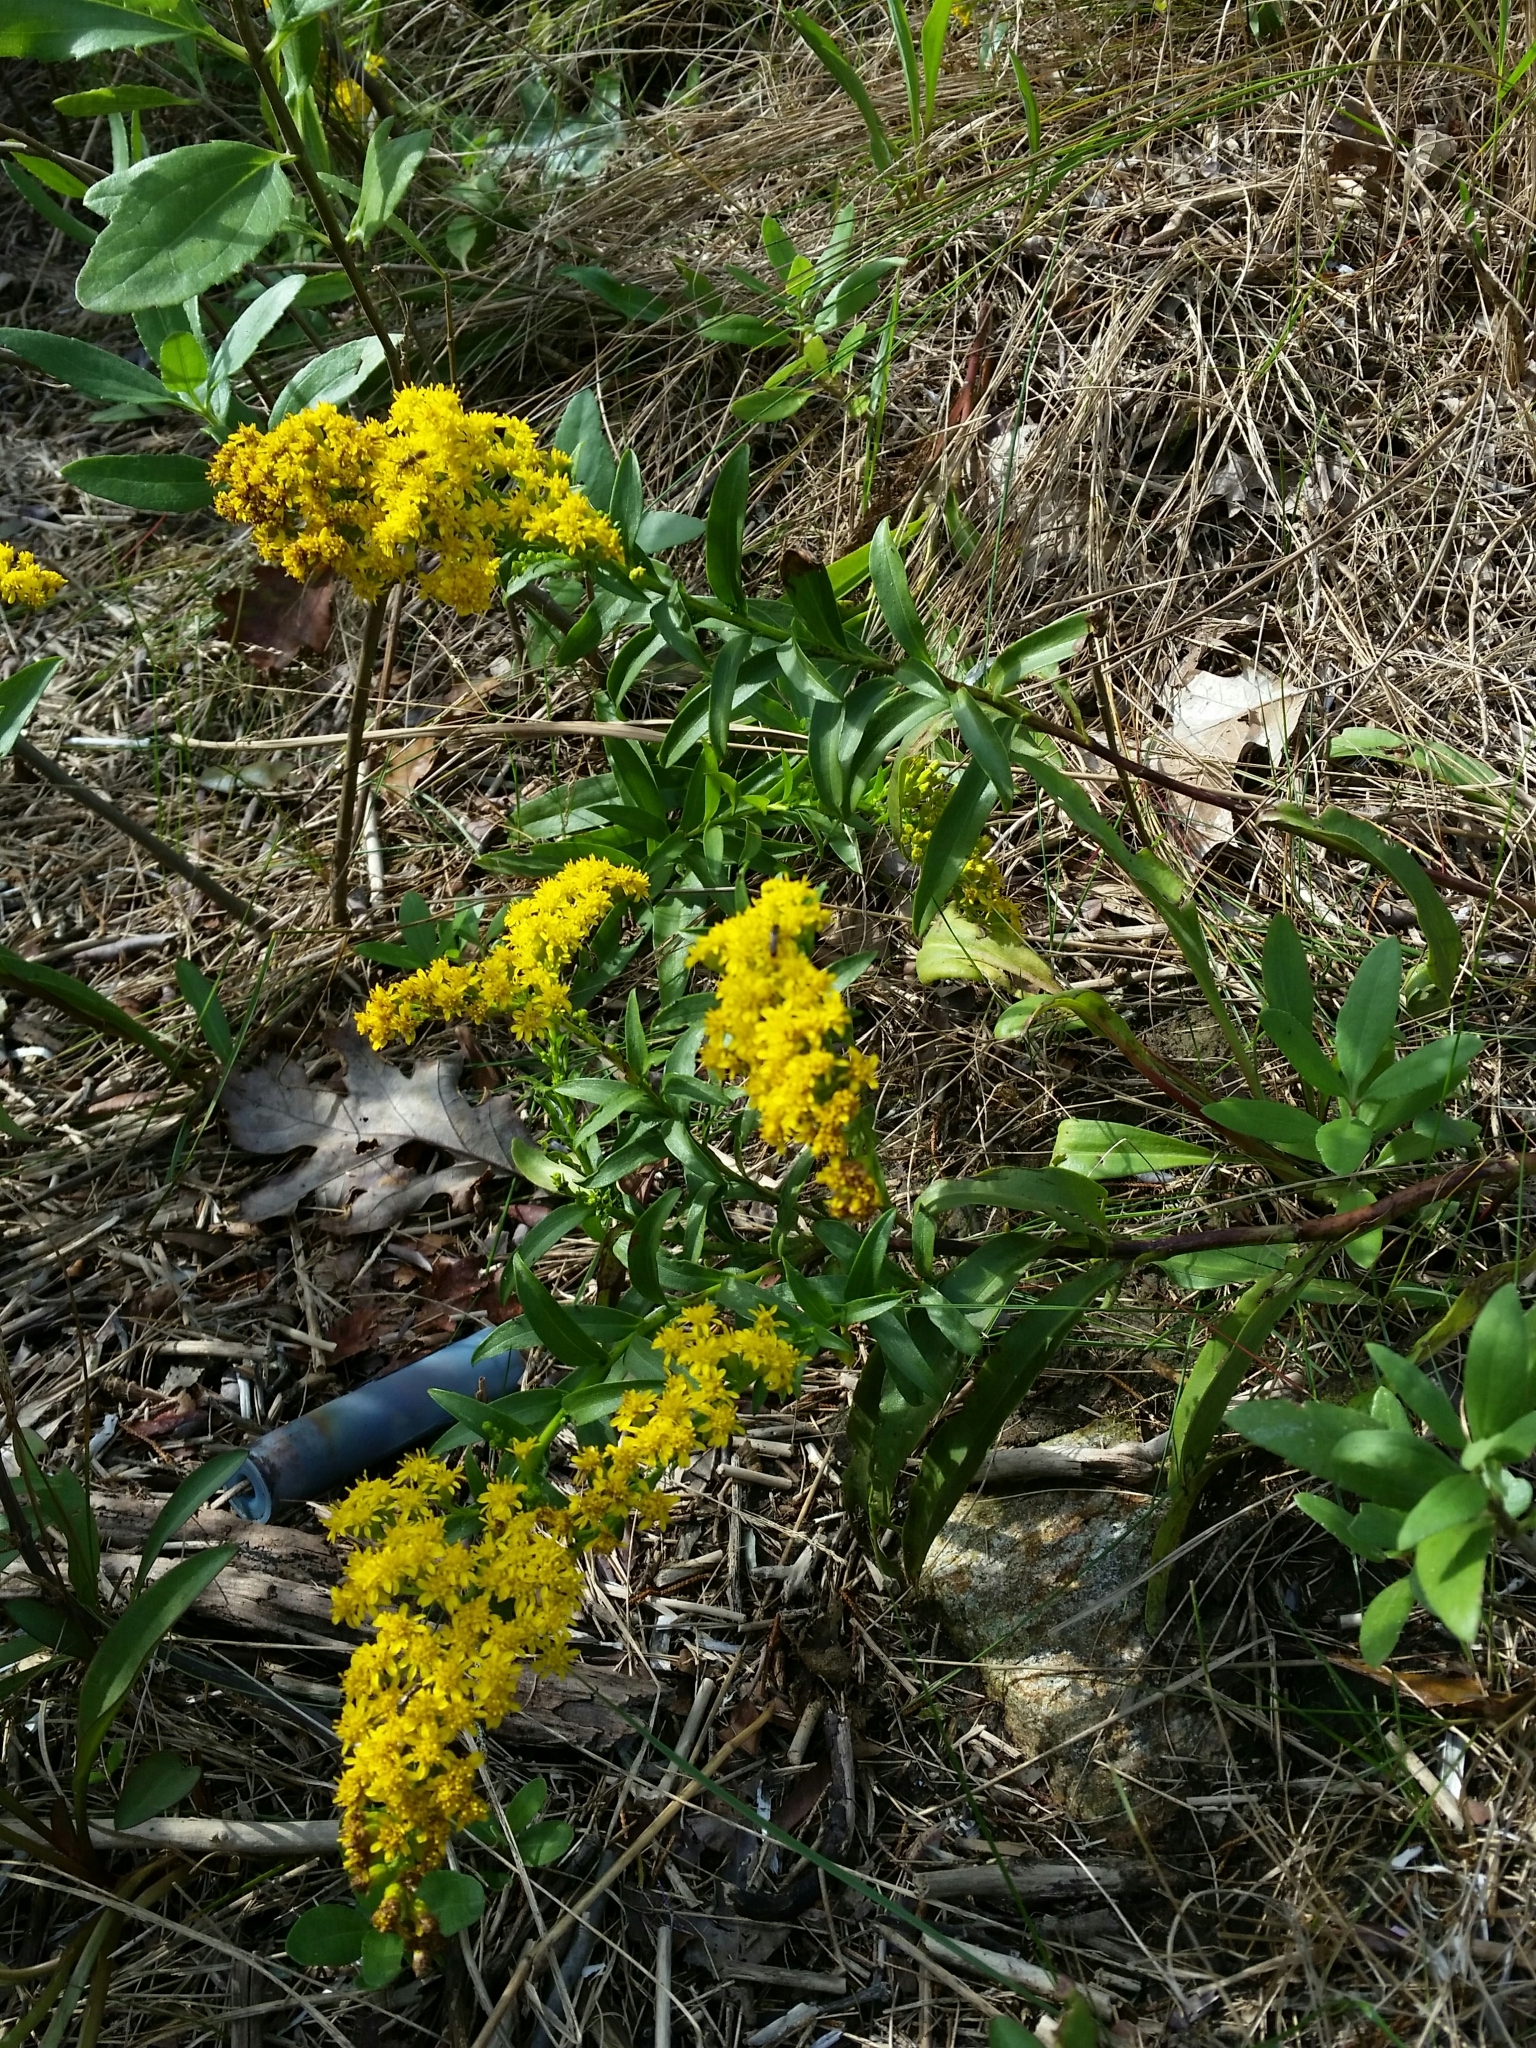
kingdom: Plantae
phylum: Tracheophyta
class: Magnoliopsida
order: Asterales
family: Asteraceae
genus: Solidago
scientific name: Solidago sempervirens
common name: Salt-marsh goldenrod
